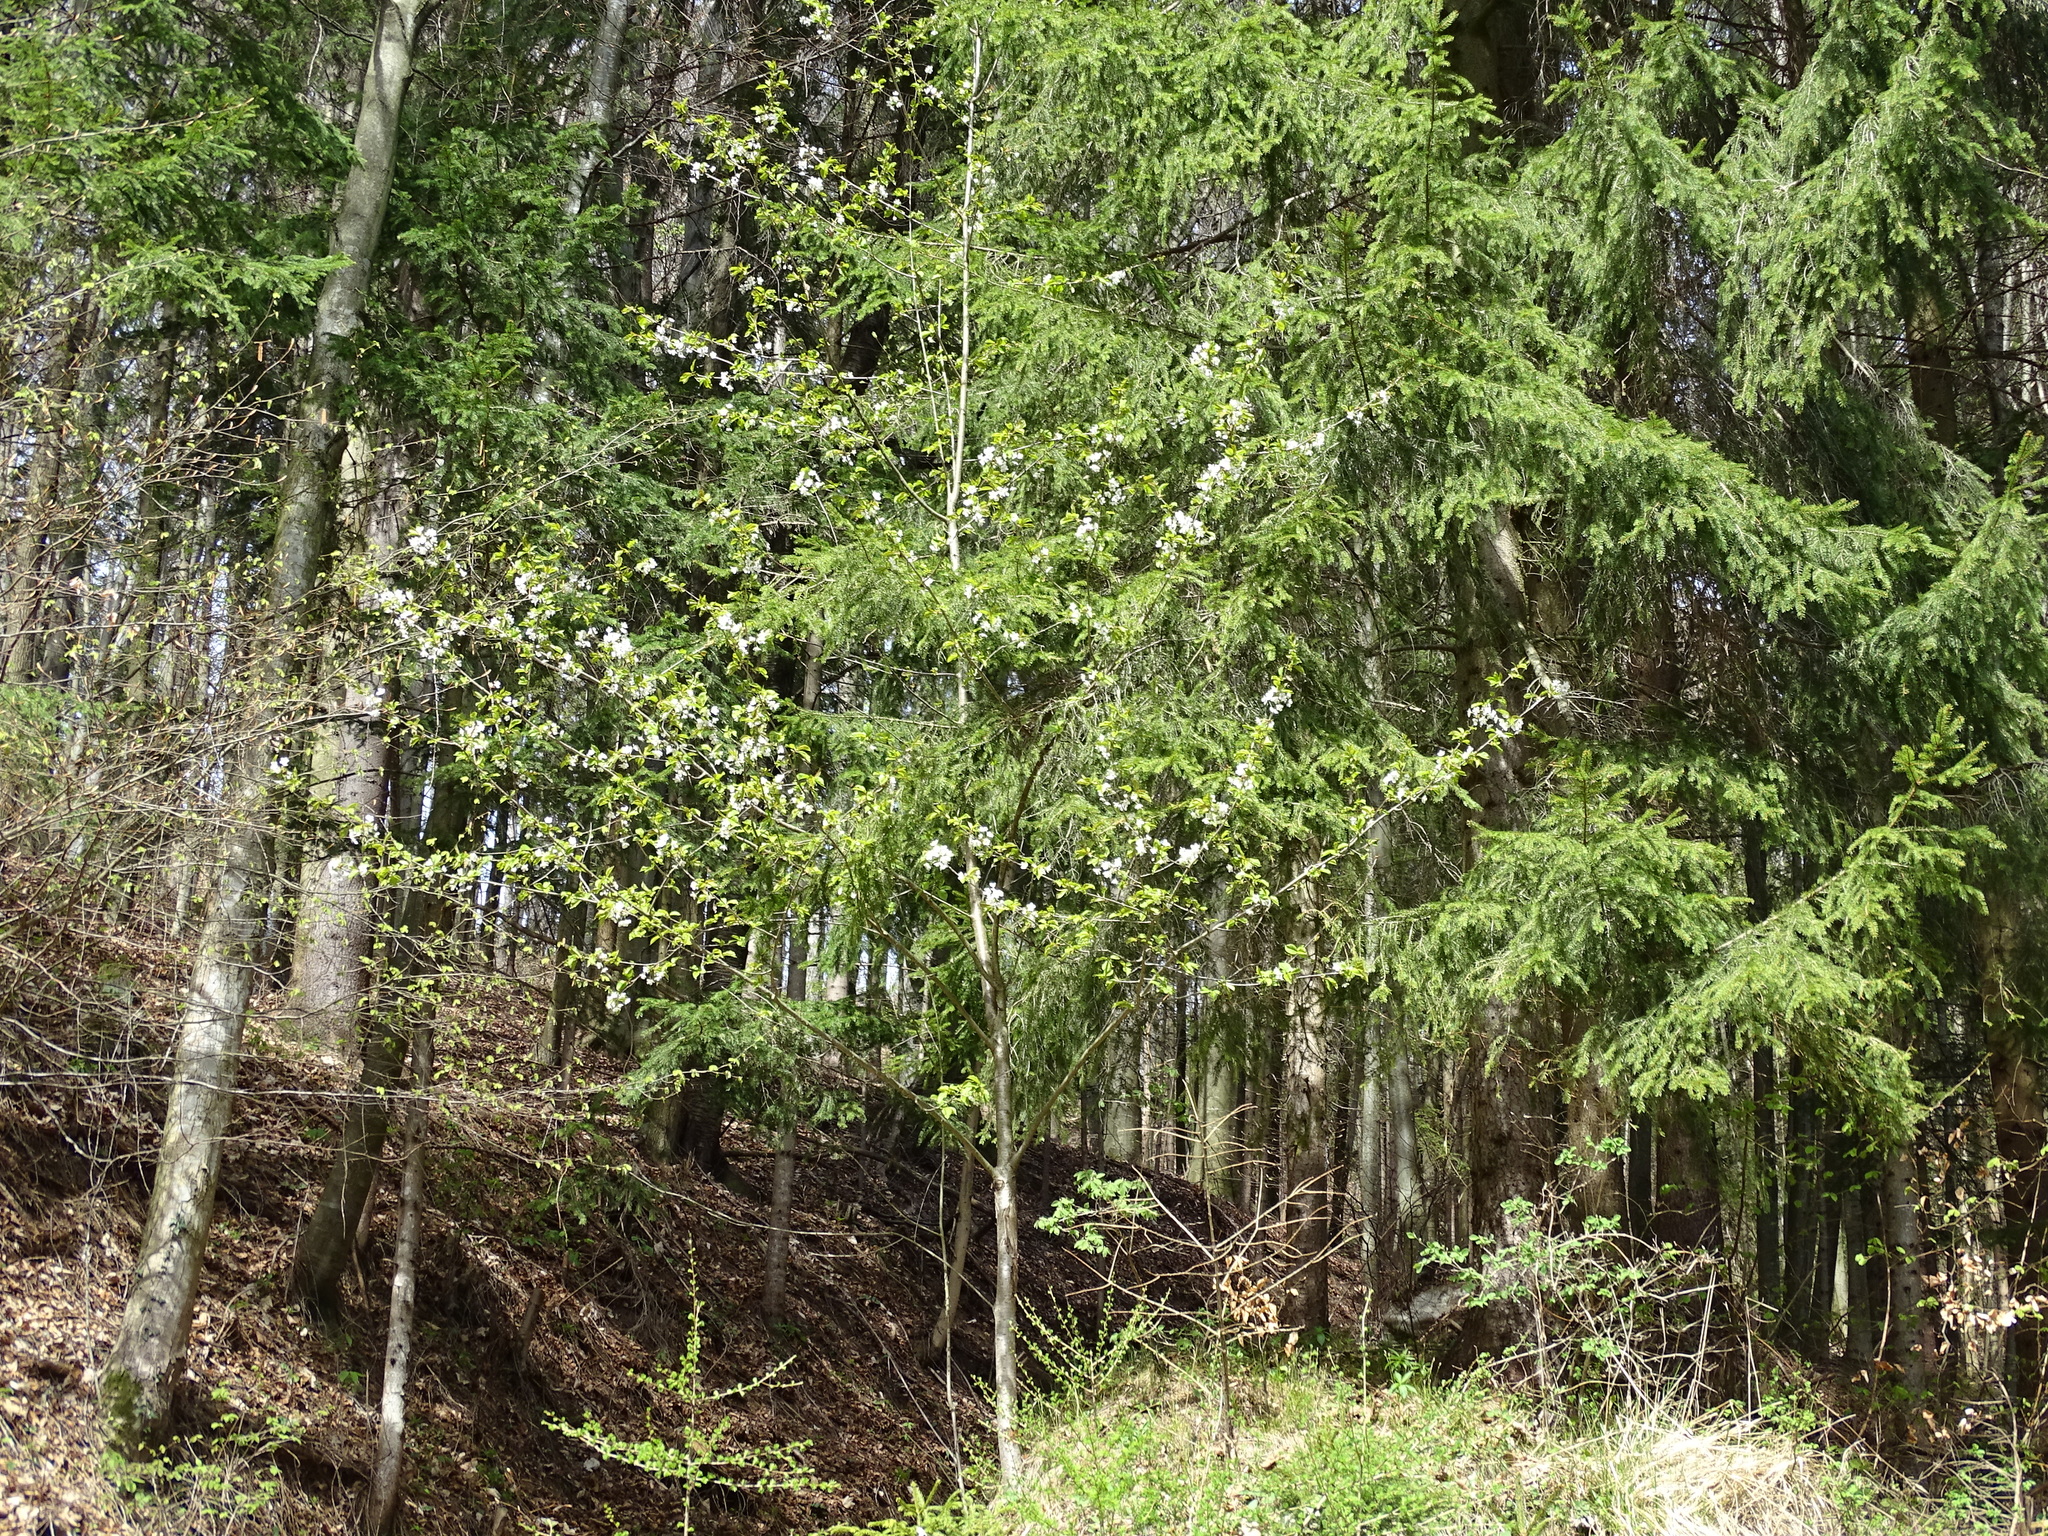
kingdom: Plantae
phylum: Tracheophyta
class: Magnoliopsida
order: Rosales
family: Rosaceae
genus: Prunus
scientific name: Prunus avium
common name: Sweet cherry
